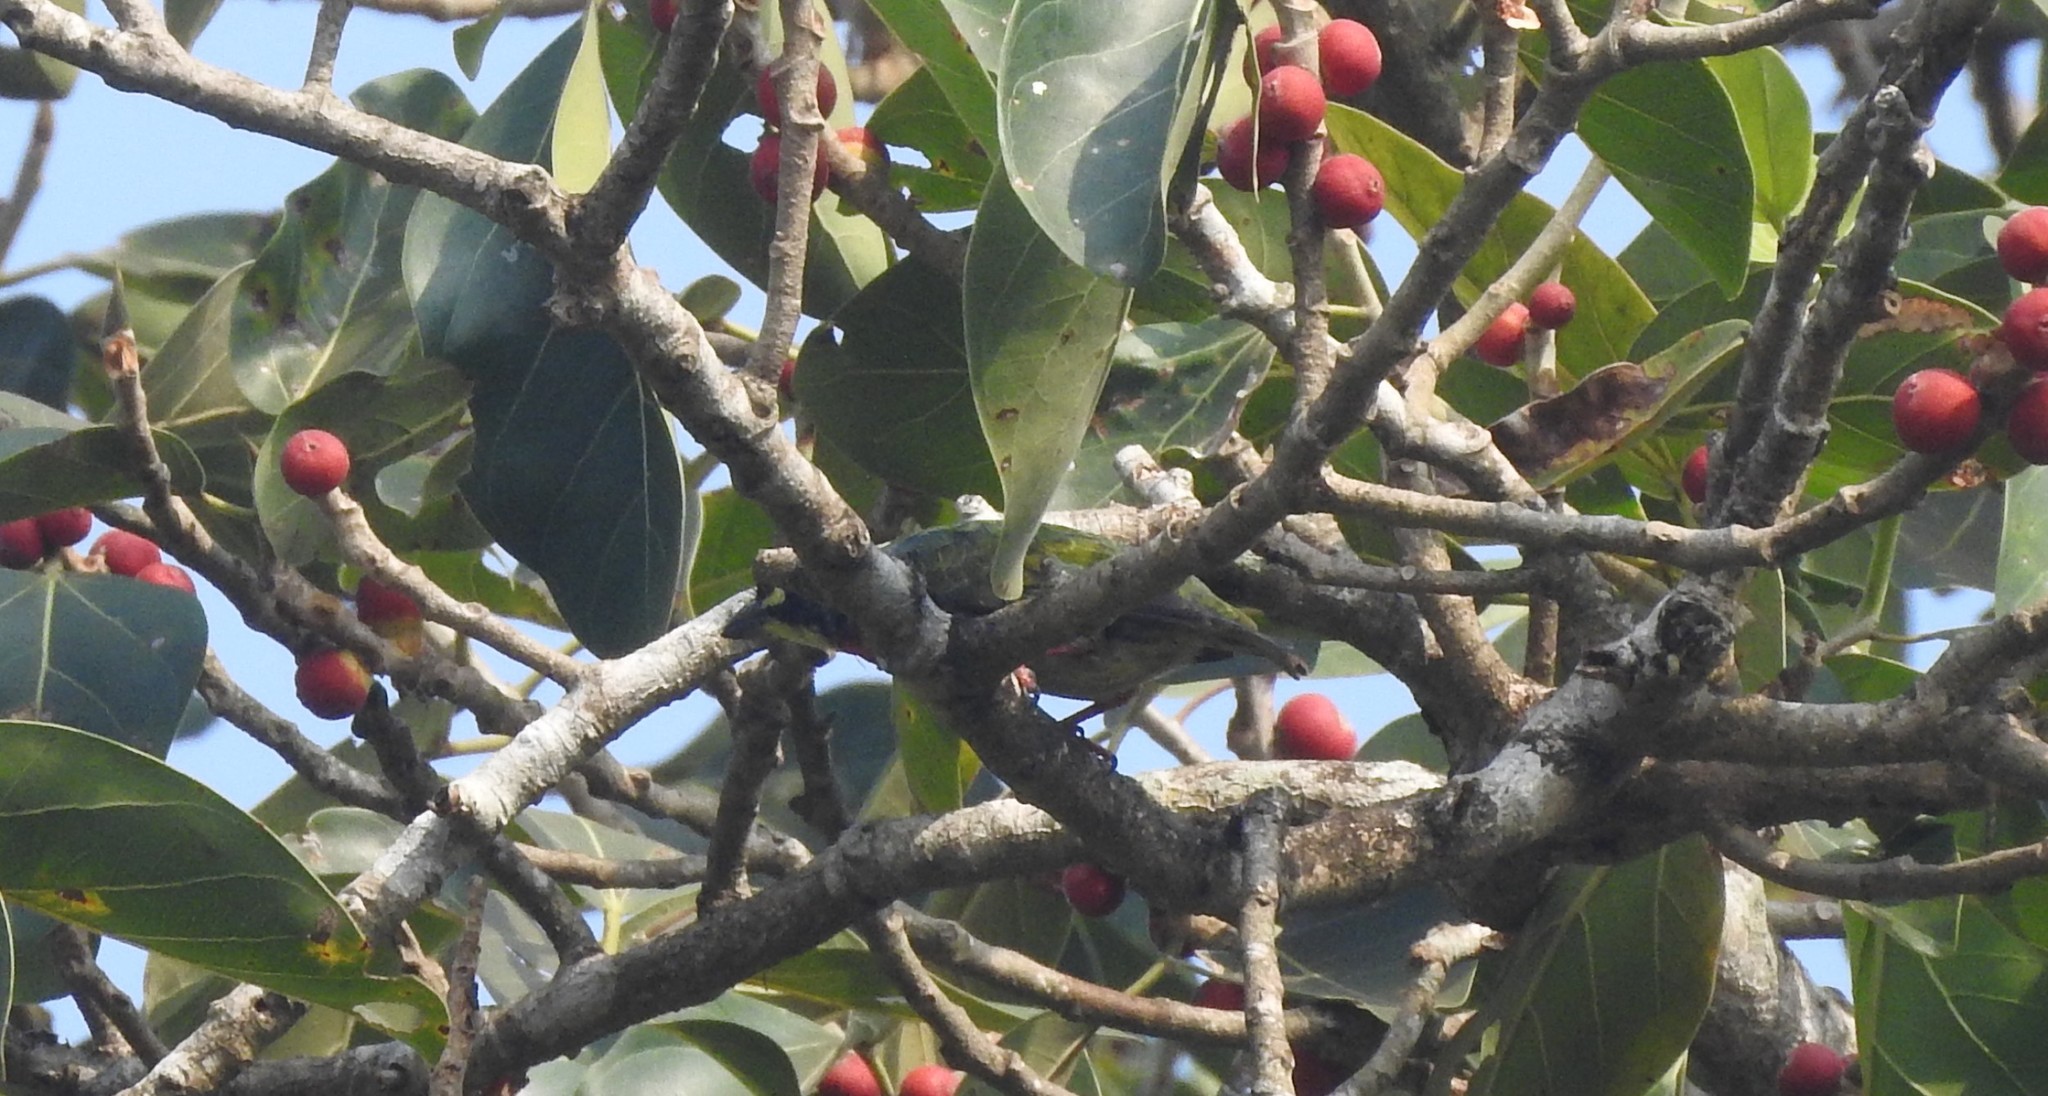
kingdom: Animalia
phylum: Chordata
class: Aves
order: Piciformes
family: Megalaimidae
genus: Psilopogon
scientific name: Psilopogon haemacephalus
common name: Coppersmith barbet
